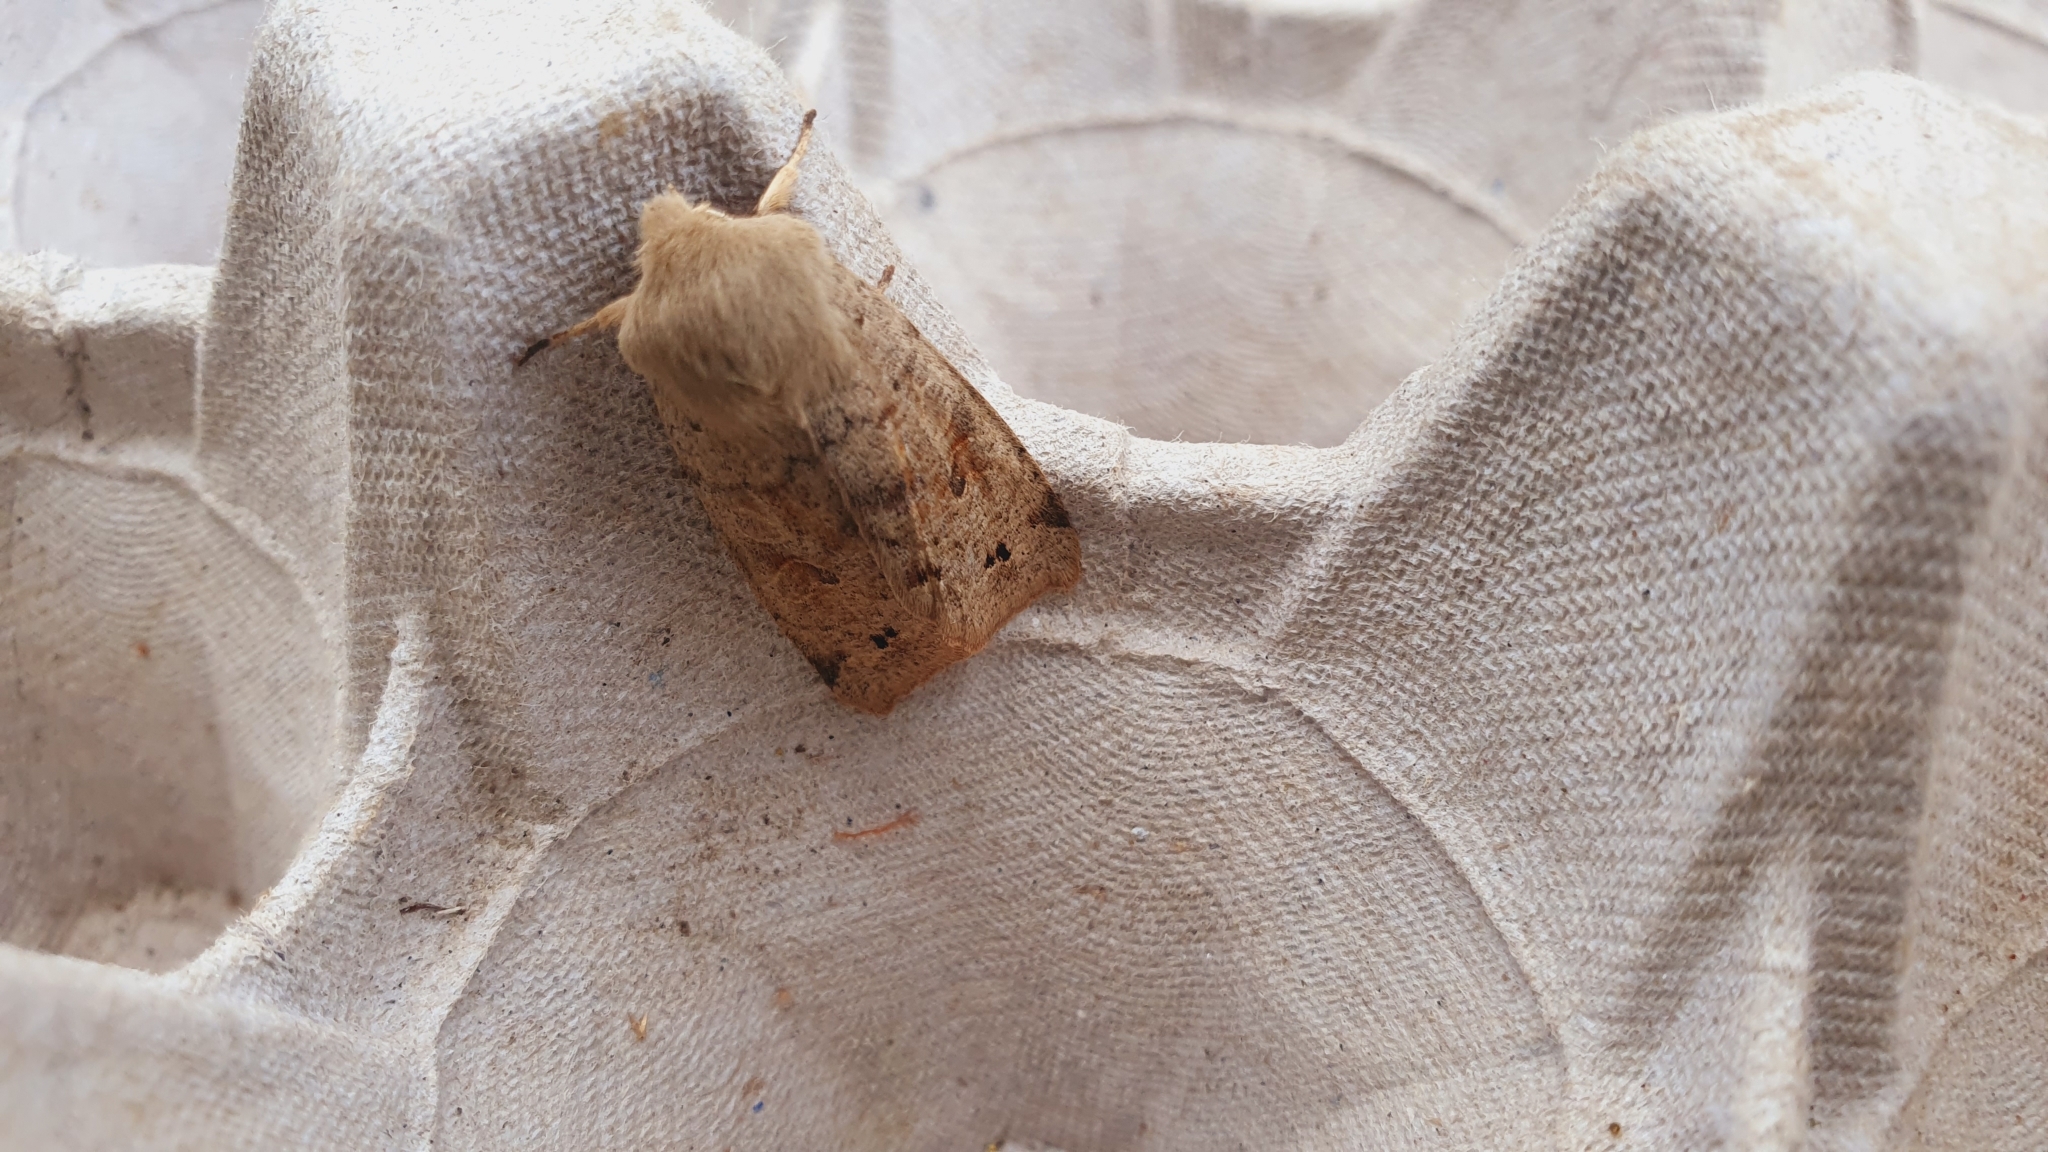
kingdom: Animalia
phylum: Arthropoda
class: Insecta
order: Lepidoptera
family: Noctuidae
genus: Anorthoa
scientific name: Anorthoa munda
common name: Twin-spotted quaker
